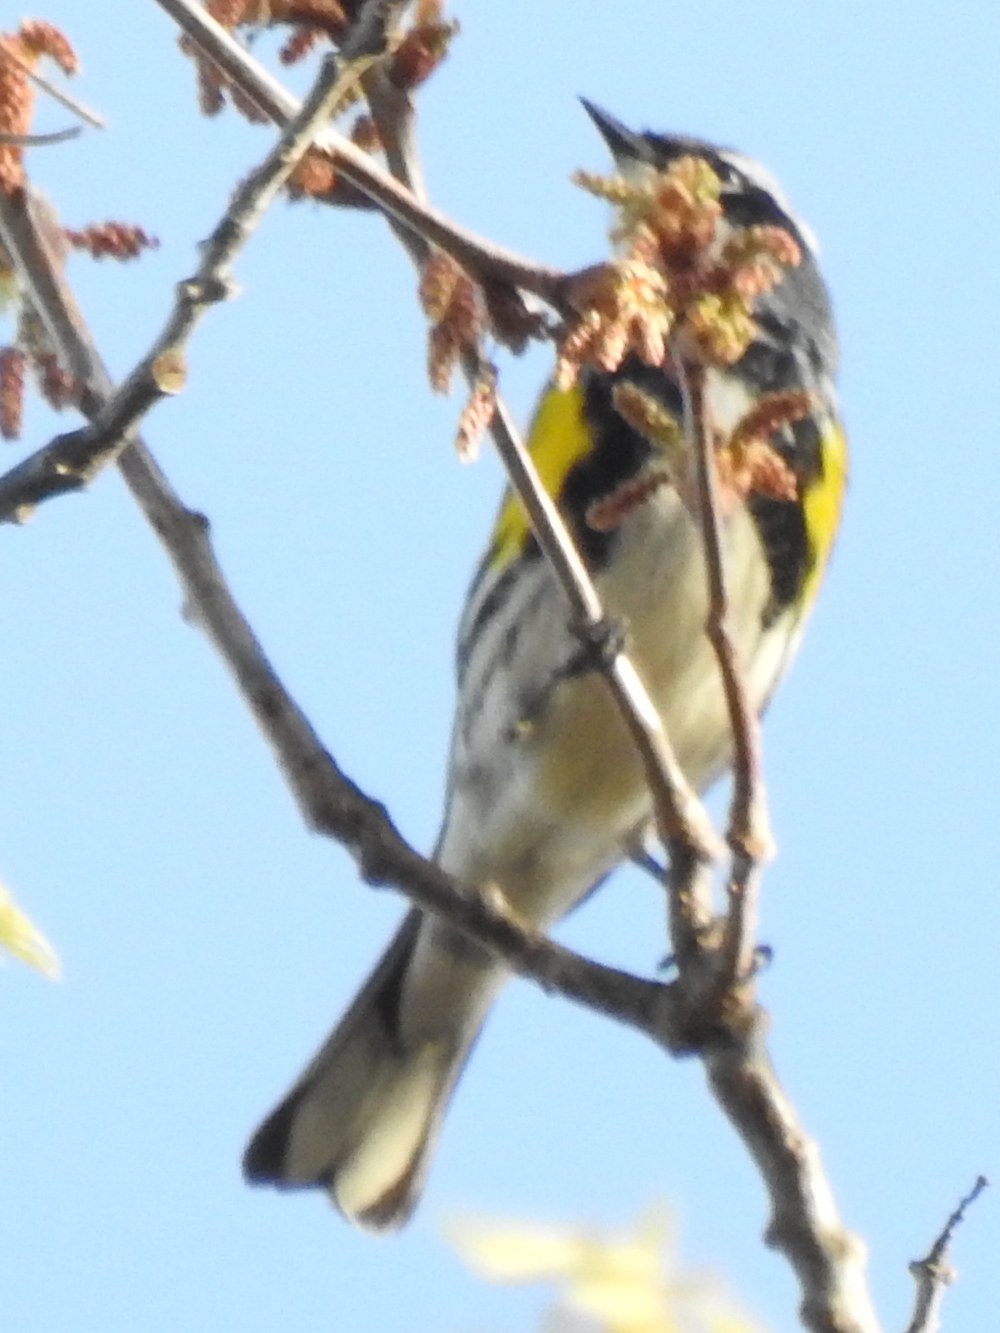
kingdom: Animalia
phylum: Chordata
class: Aves
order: Passeriformes
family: Parulidae
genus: Setophaga
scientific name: Setophaga coronata
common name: Myrtle warbler
